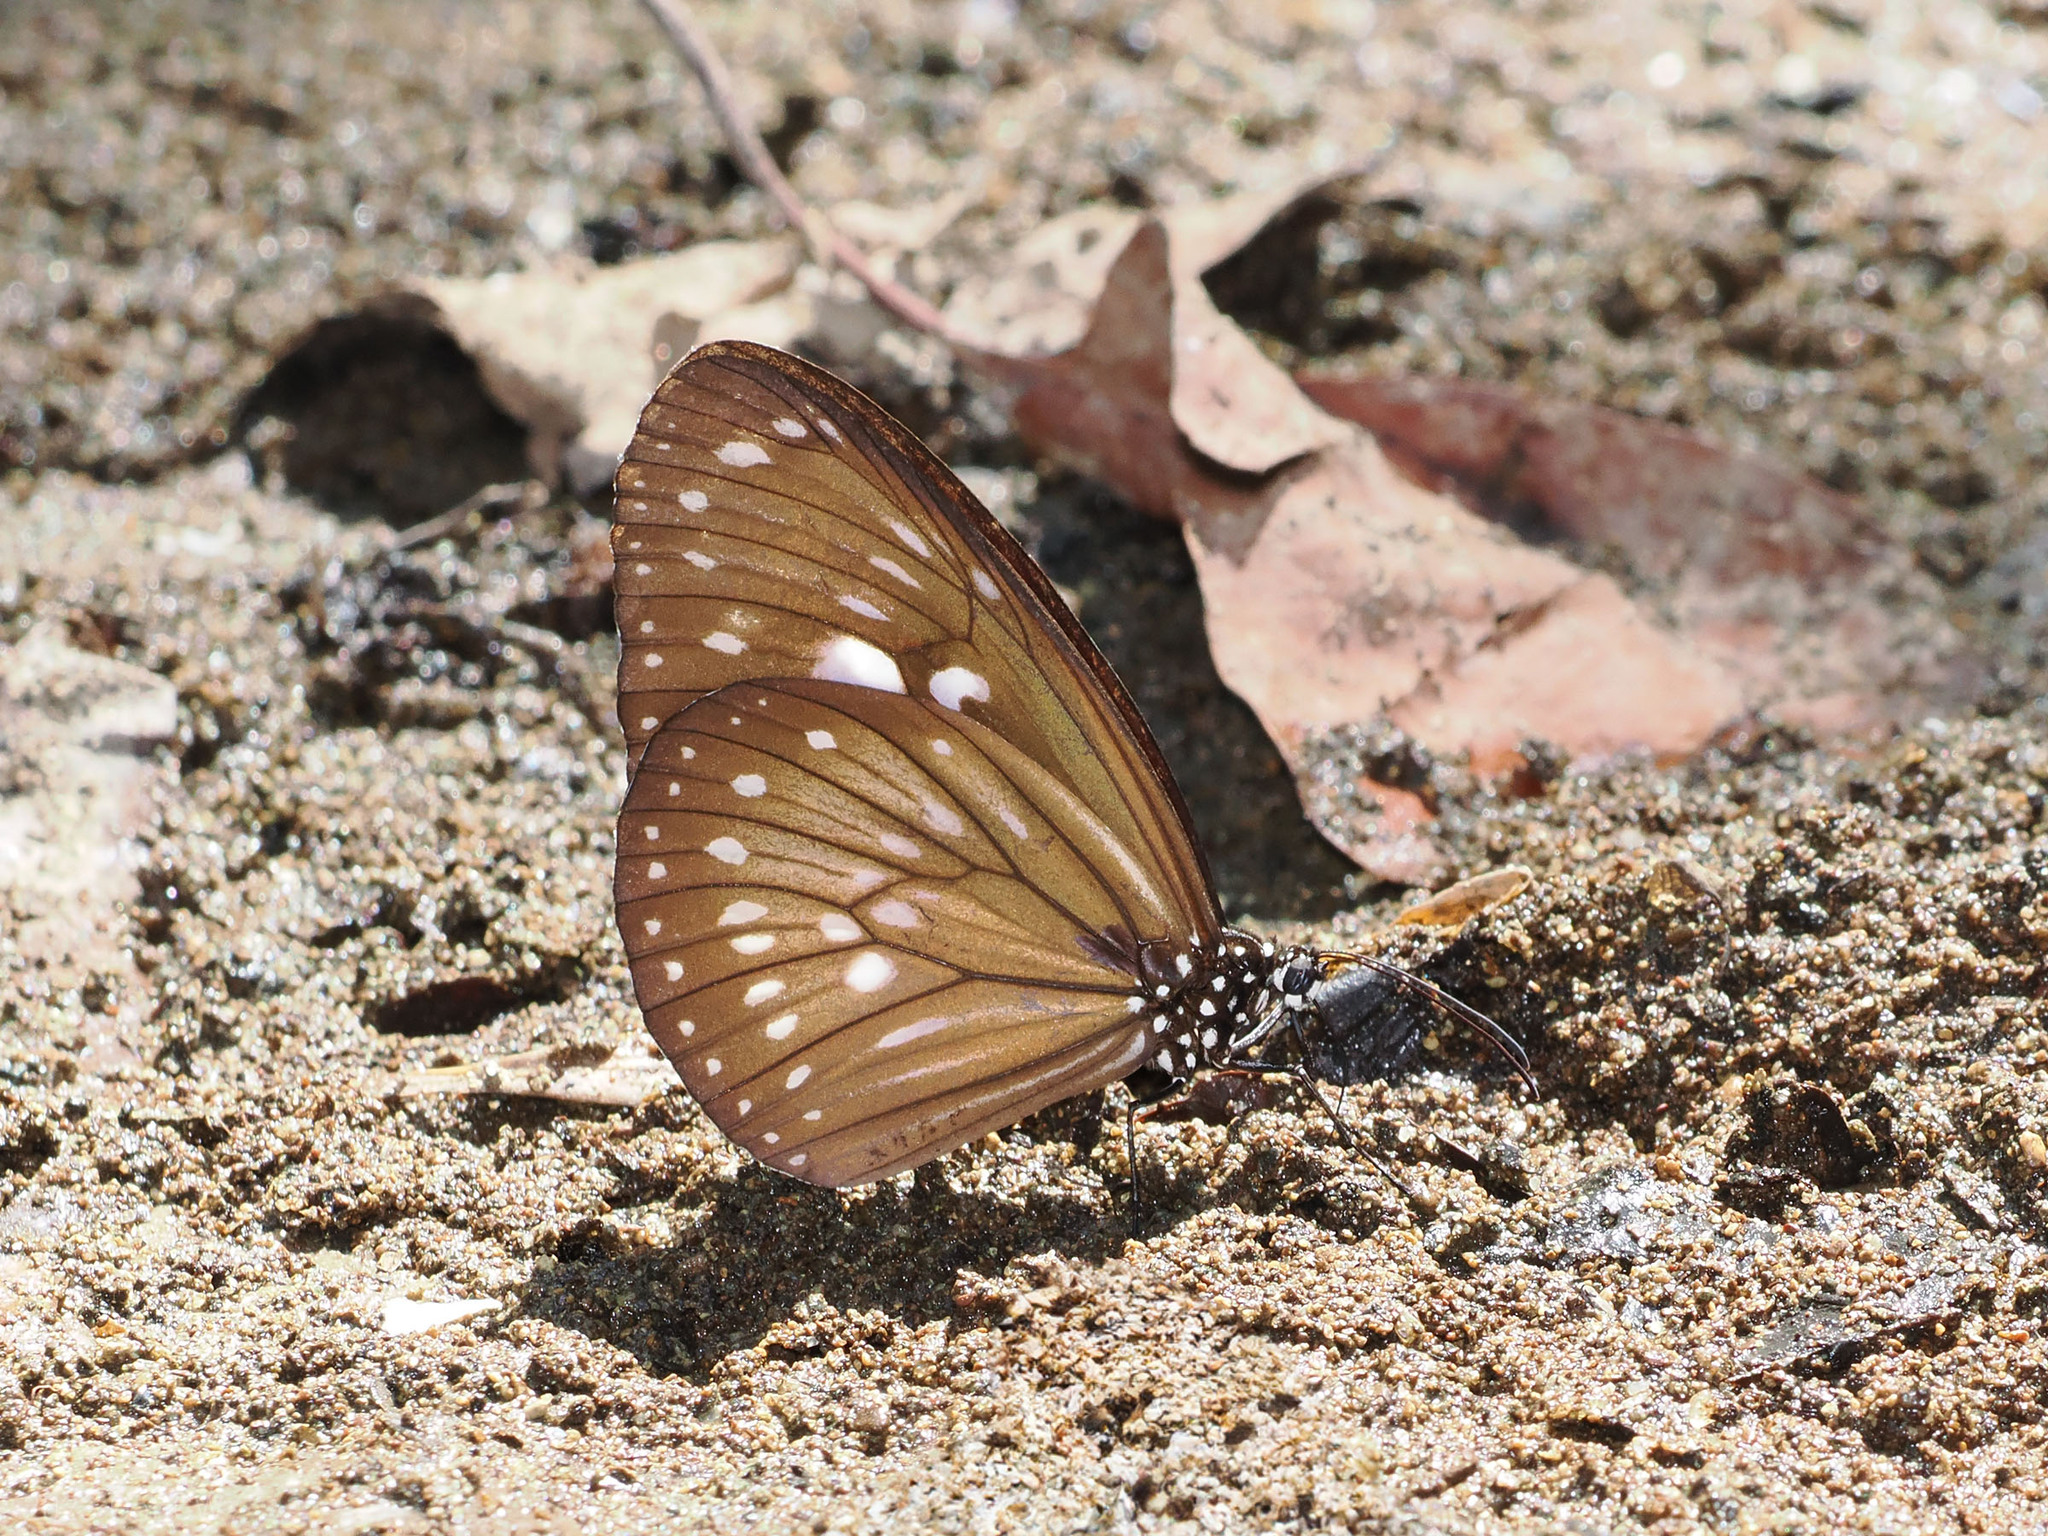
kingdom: Animalia
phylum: Arthropoda
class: Insecta
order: Lepidoptera
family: Nymphalidae
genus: Euploea
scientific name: Euploea algea
